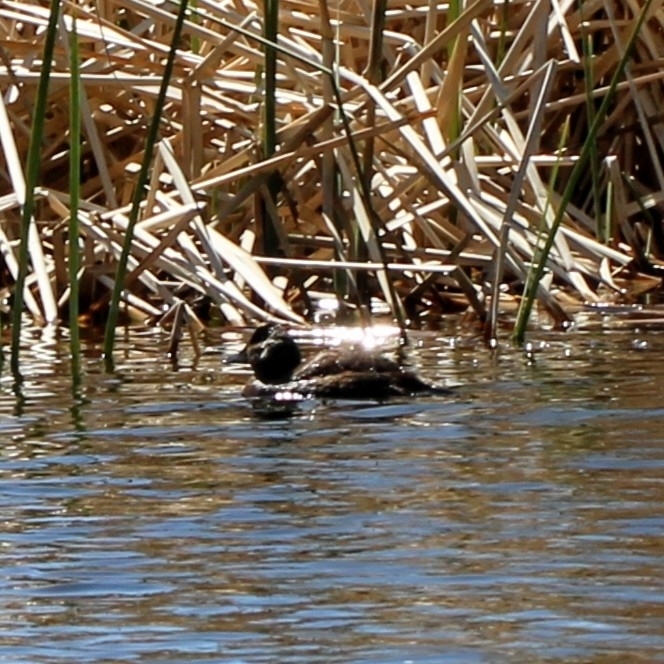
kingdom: Animalia
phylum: Chordata
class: Aves
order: Anseriformes
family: Anatidae
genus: Oxyura
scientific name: Oxyura jamaicensis
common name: Ruddy duck
